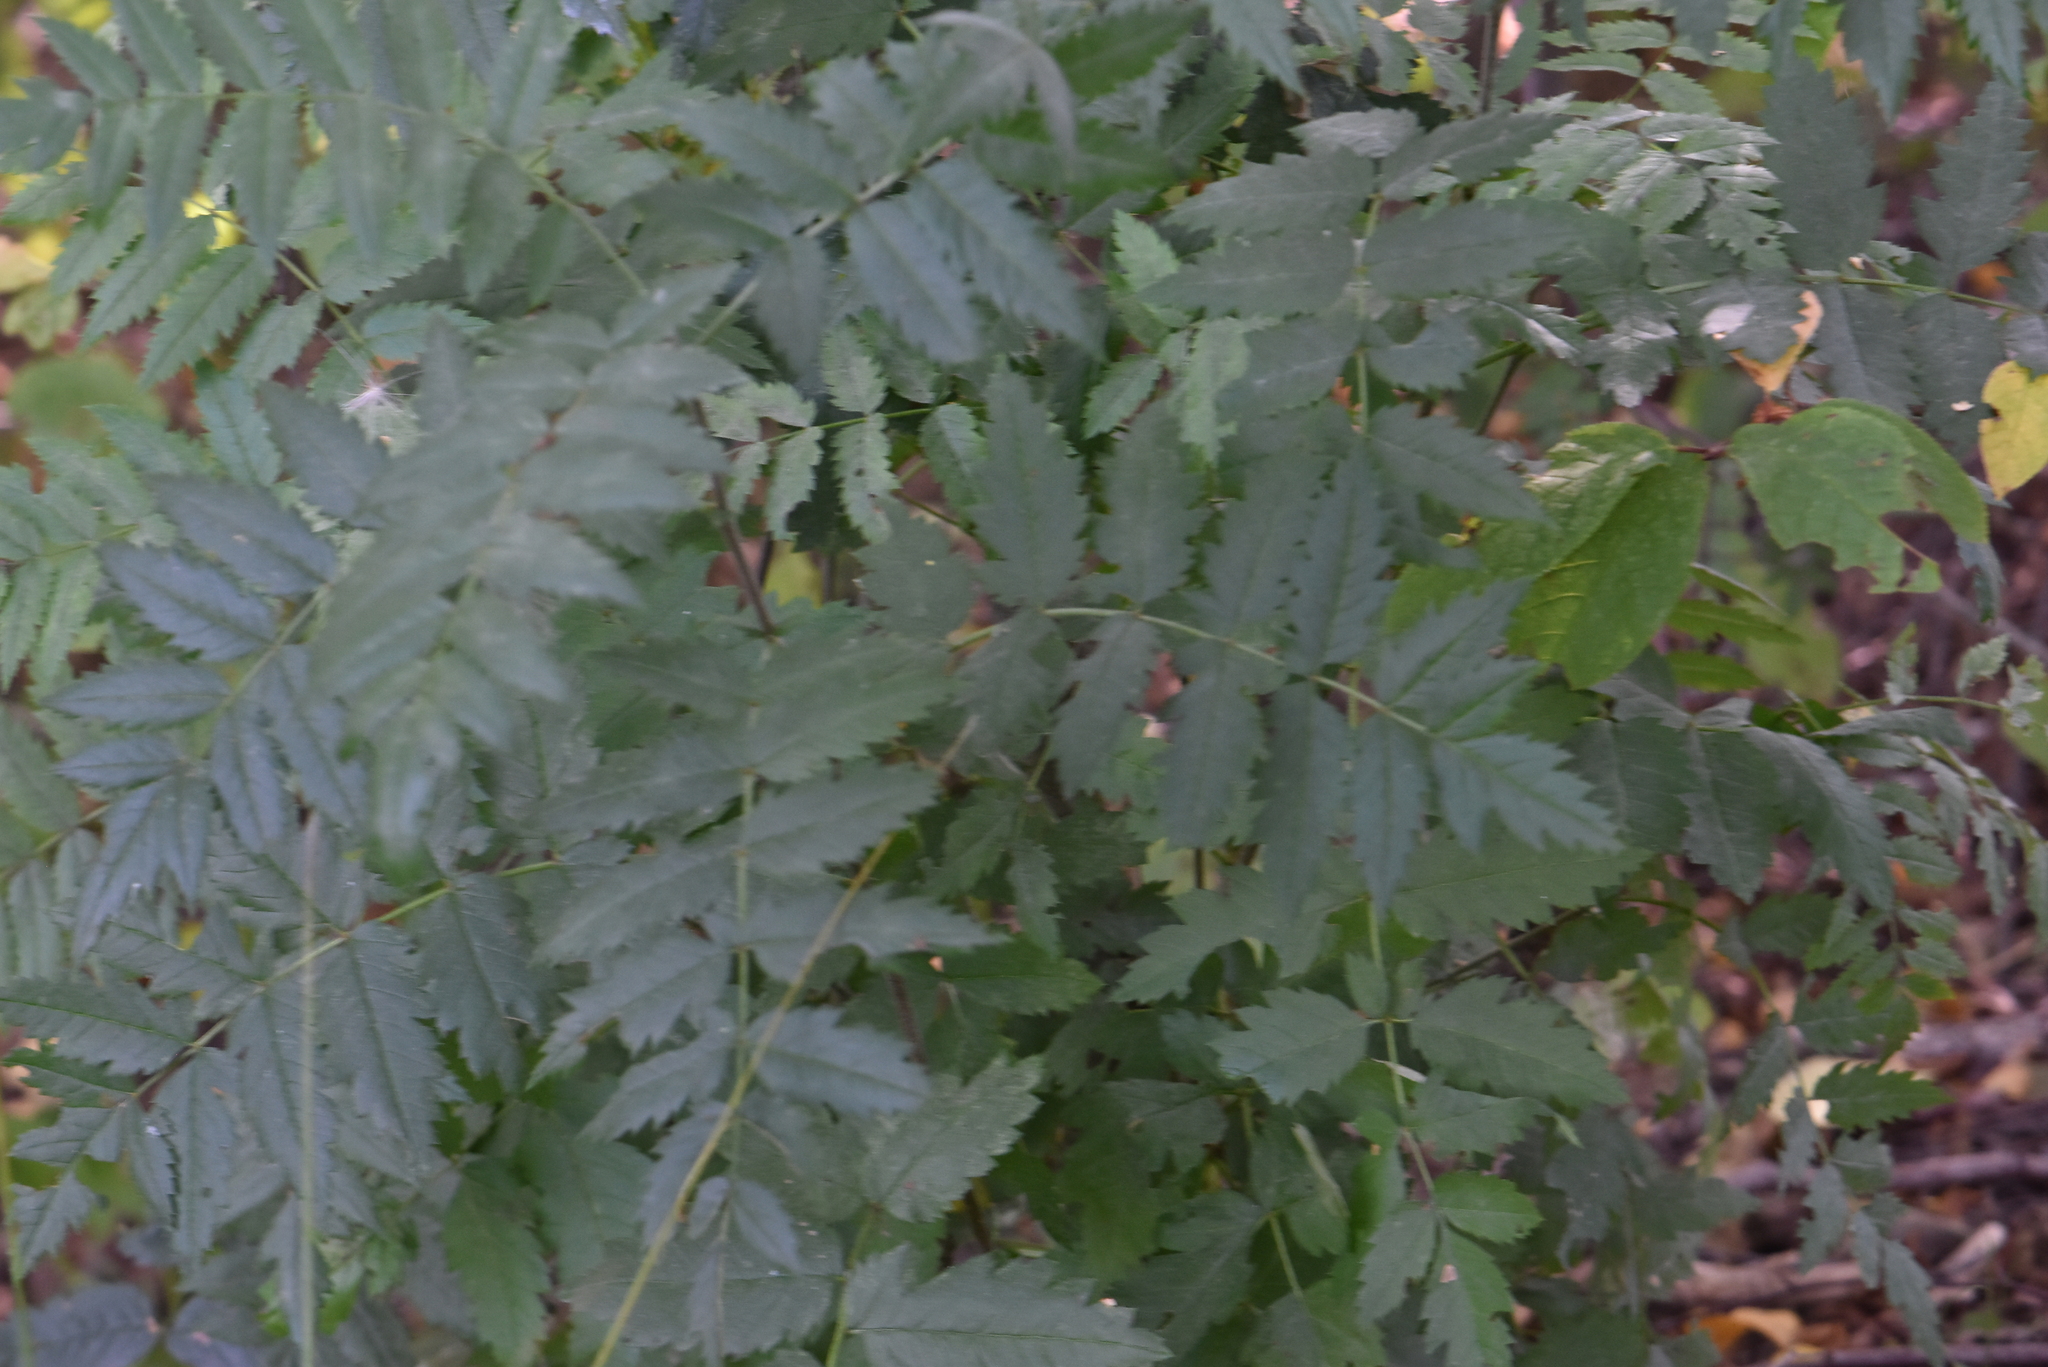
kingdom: Plantae
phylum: Tracheophyta
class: Magnoliopsida
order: Rosales
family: Rosaceae
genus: Sorbus
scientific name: Sorbus aucuparia
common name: Rowan
